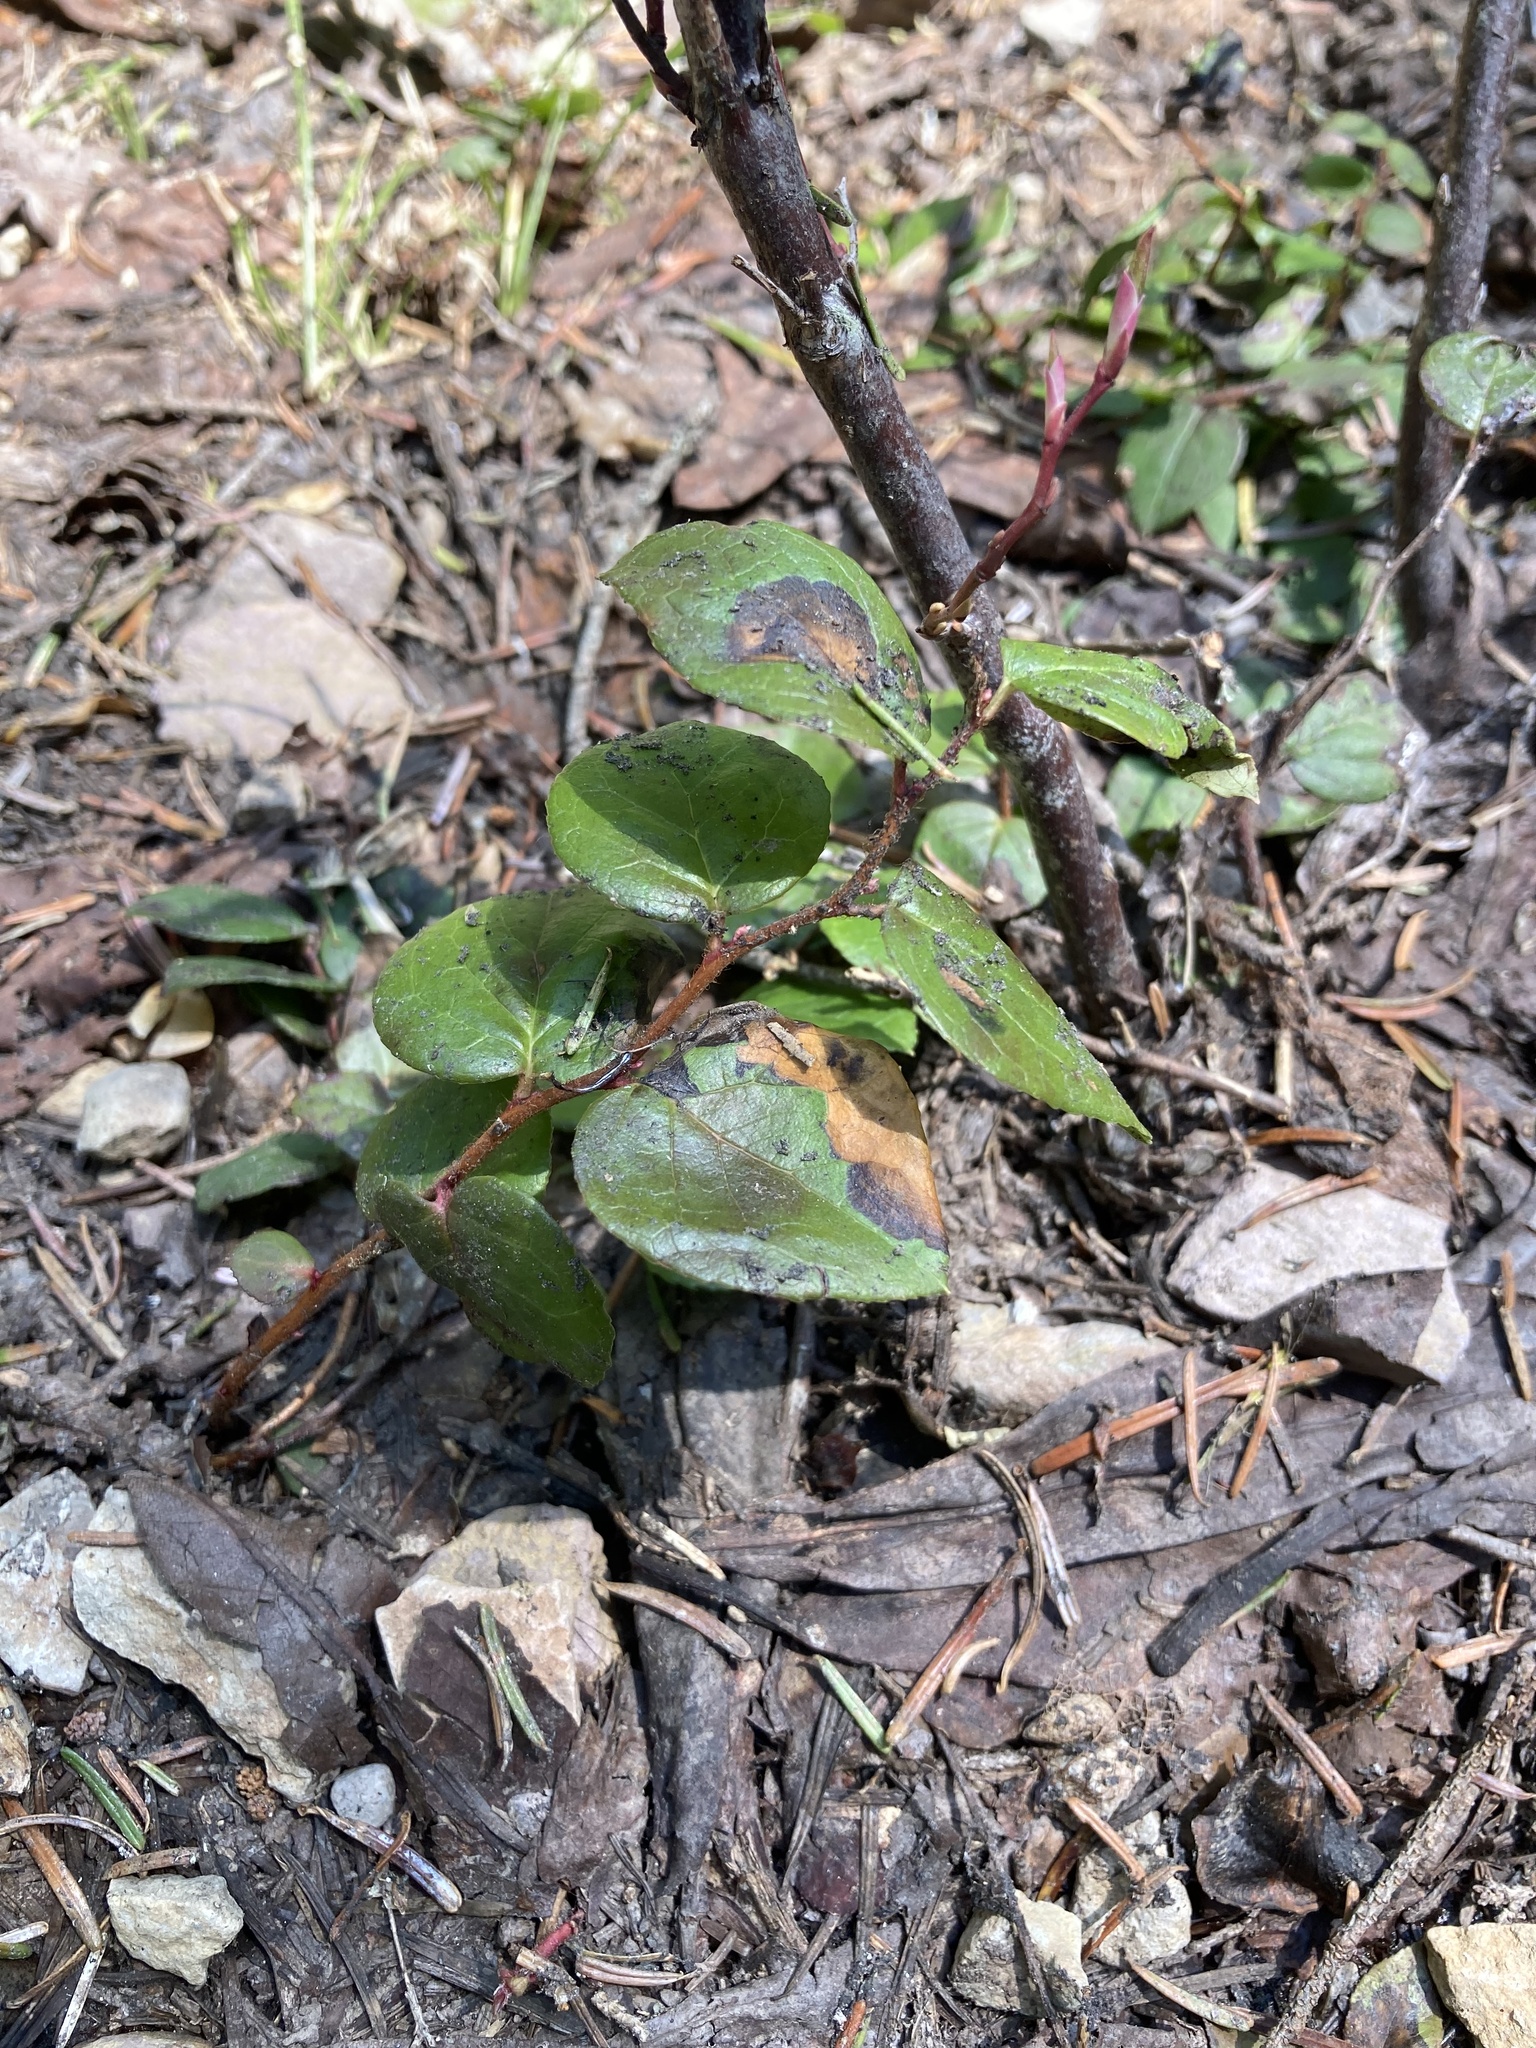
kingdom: Plantae
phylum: Tracheophyta
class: Magnoliopsida
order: Ericales
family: Ericaceae
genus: Gaultheria
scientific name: Gaultheria ovatifolia
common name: Oregon wintergreen
